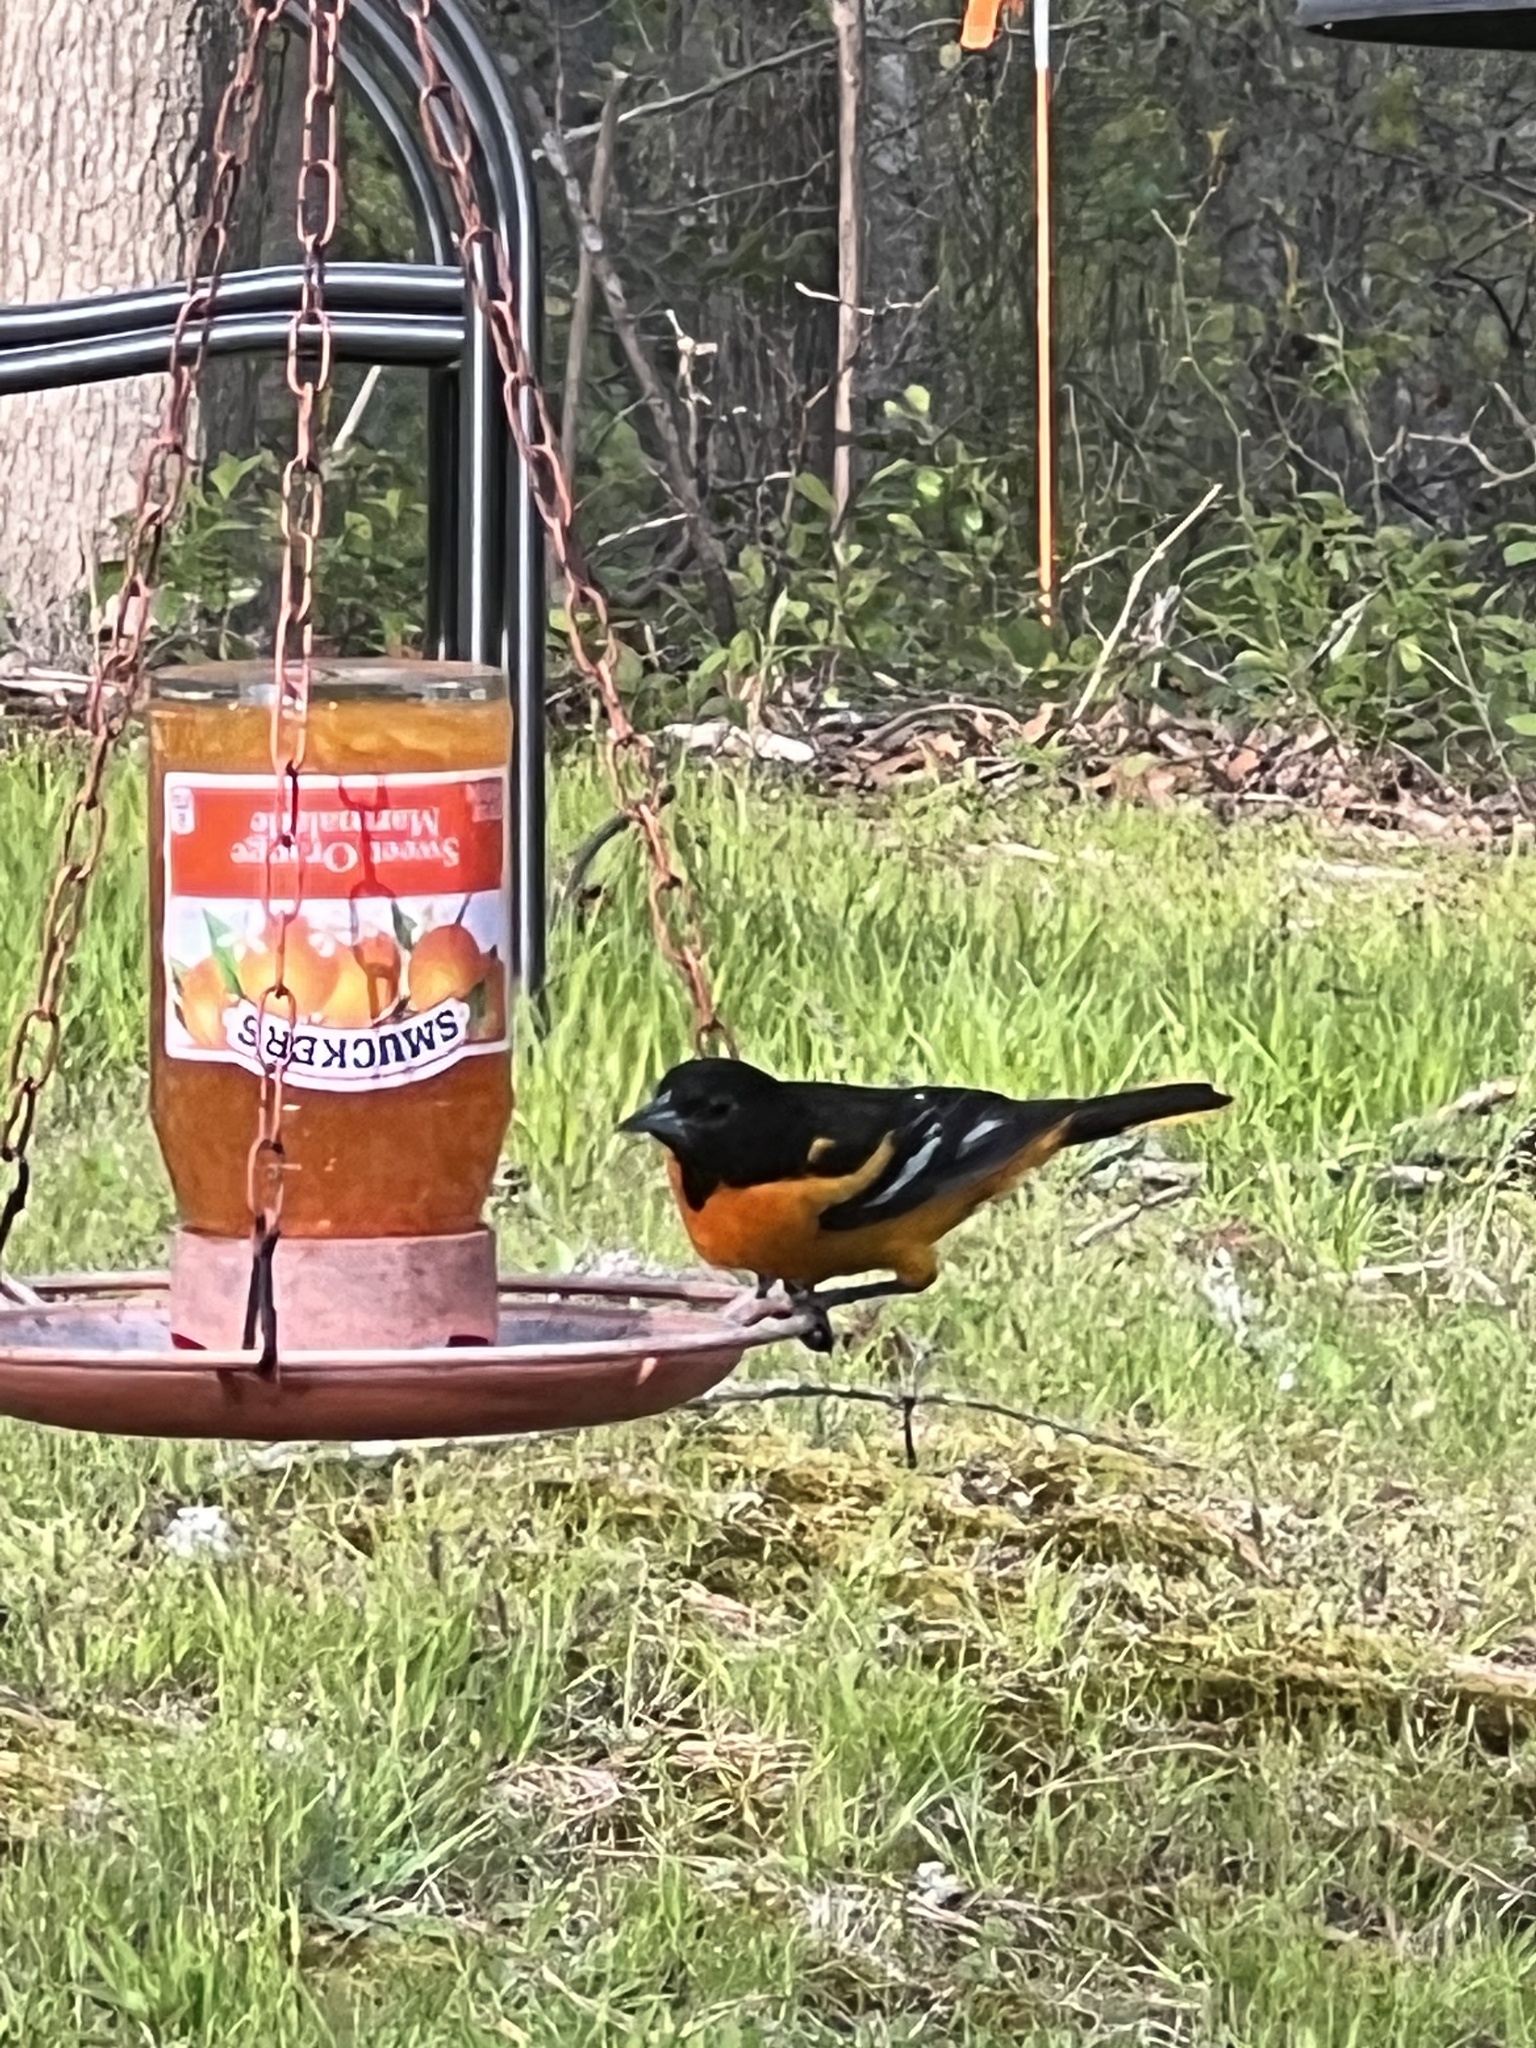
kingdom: Animalia
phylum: Chordata
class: Aves
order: Passeriformes
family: Icteridae
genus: Icterus
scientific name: Icterus galbula
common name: Baltimore oriole
